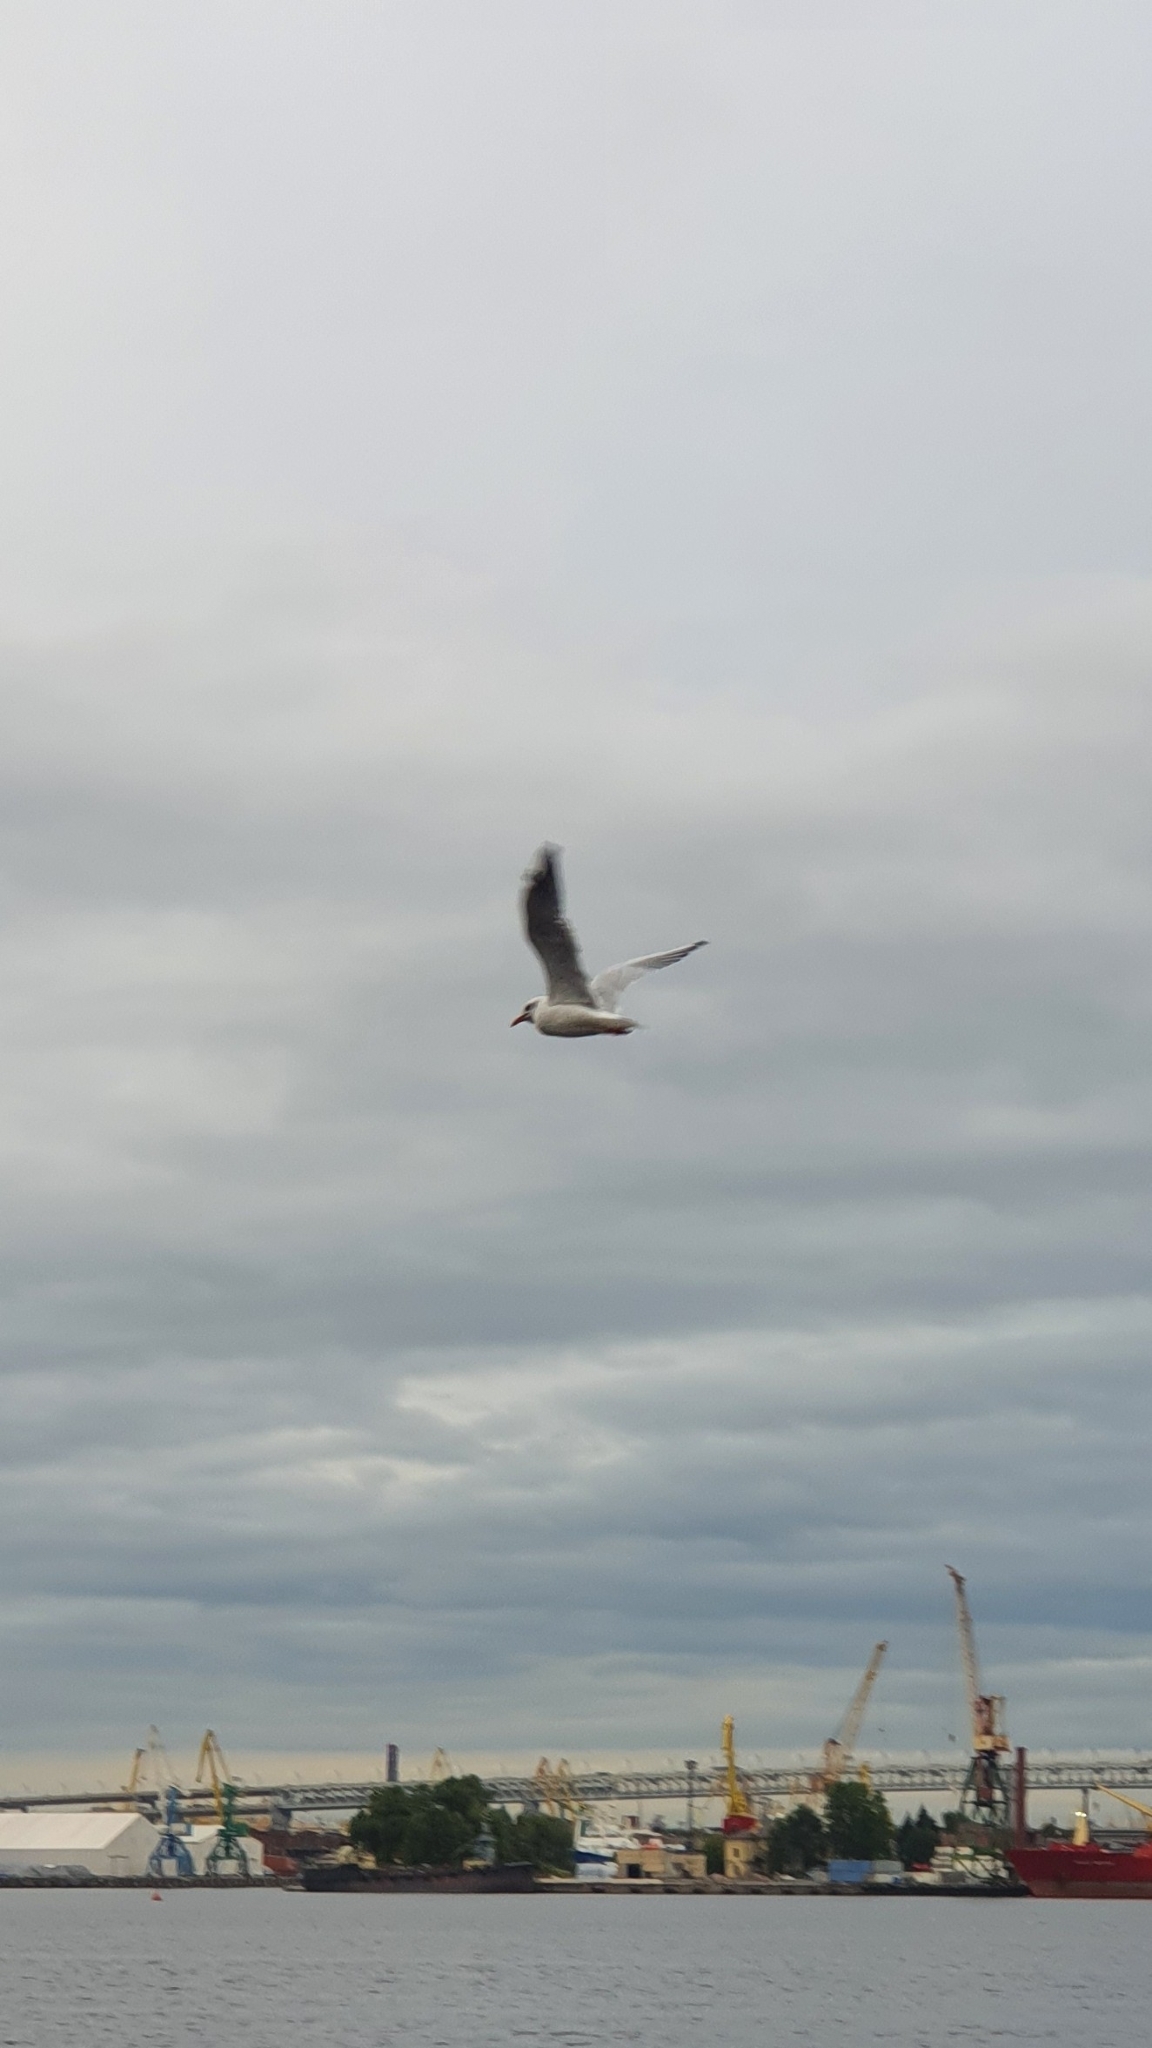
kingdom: Animalia
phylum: Chordata
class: Aves
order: Charadriiformes
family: Laridae
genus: Chroicocephalus
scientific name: Chroicocephalus ridibundus
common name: Black-headed gull
